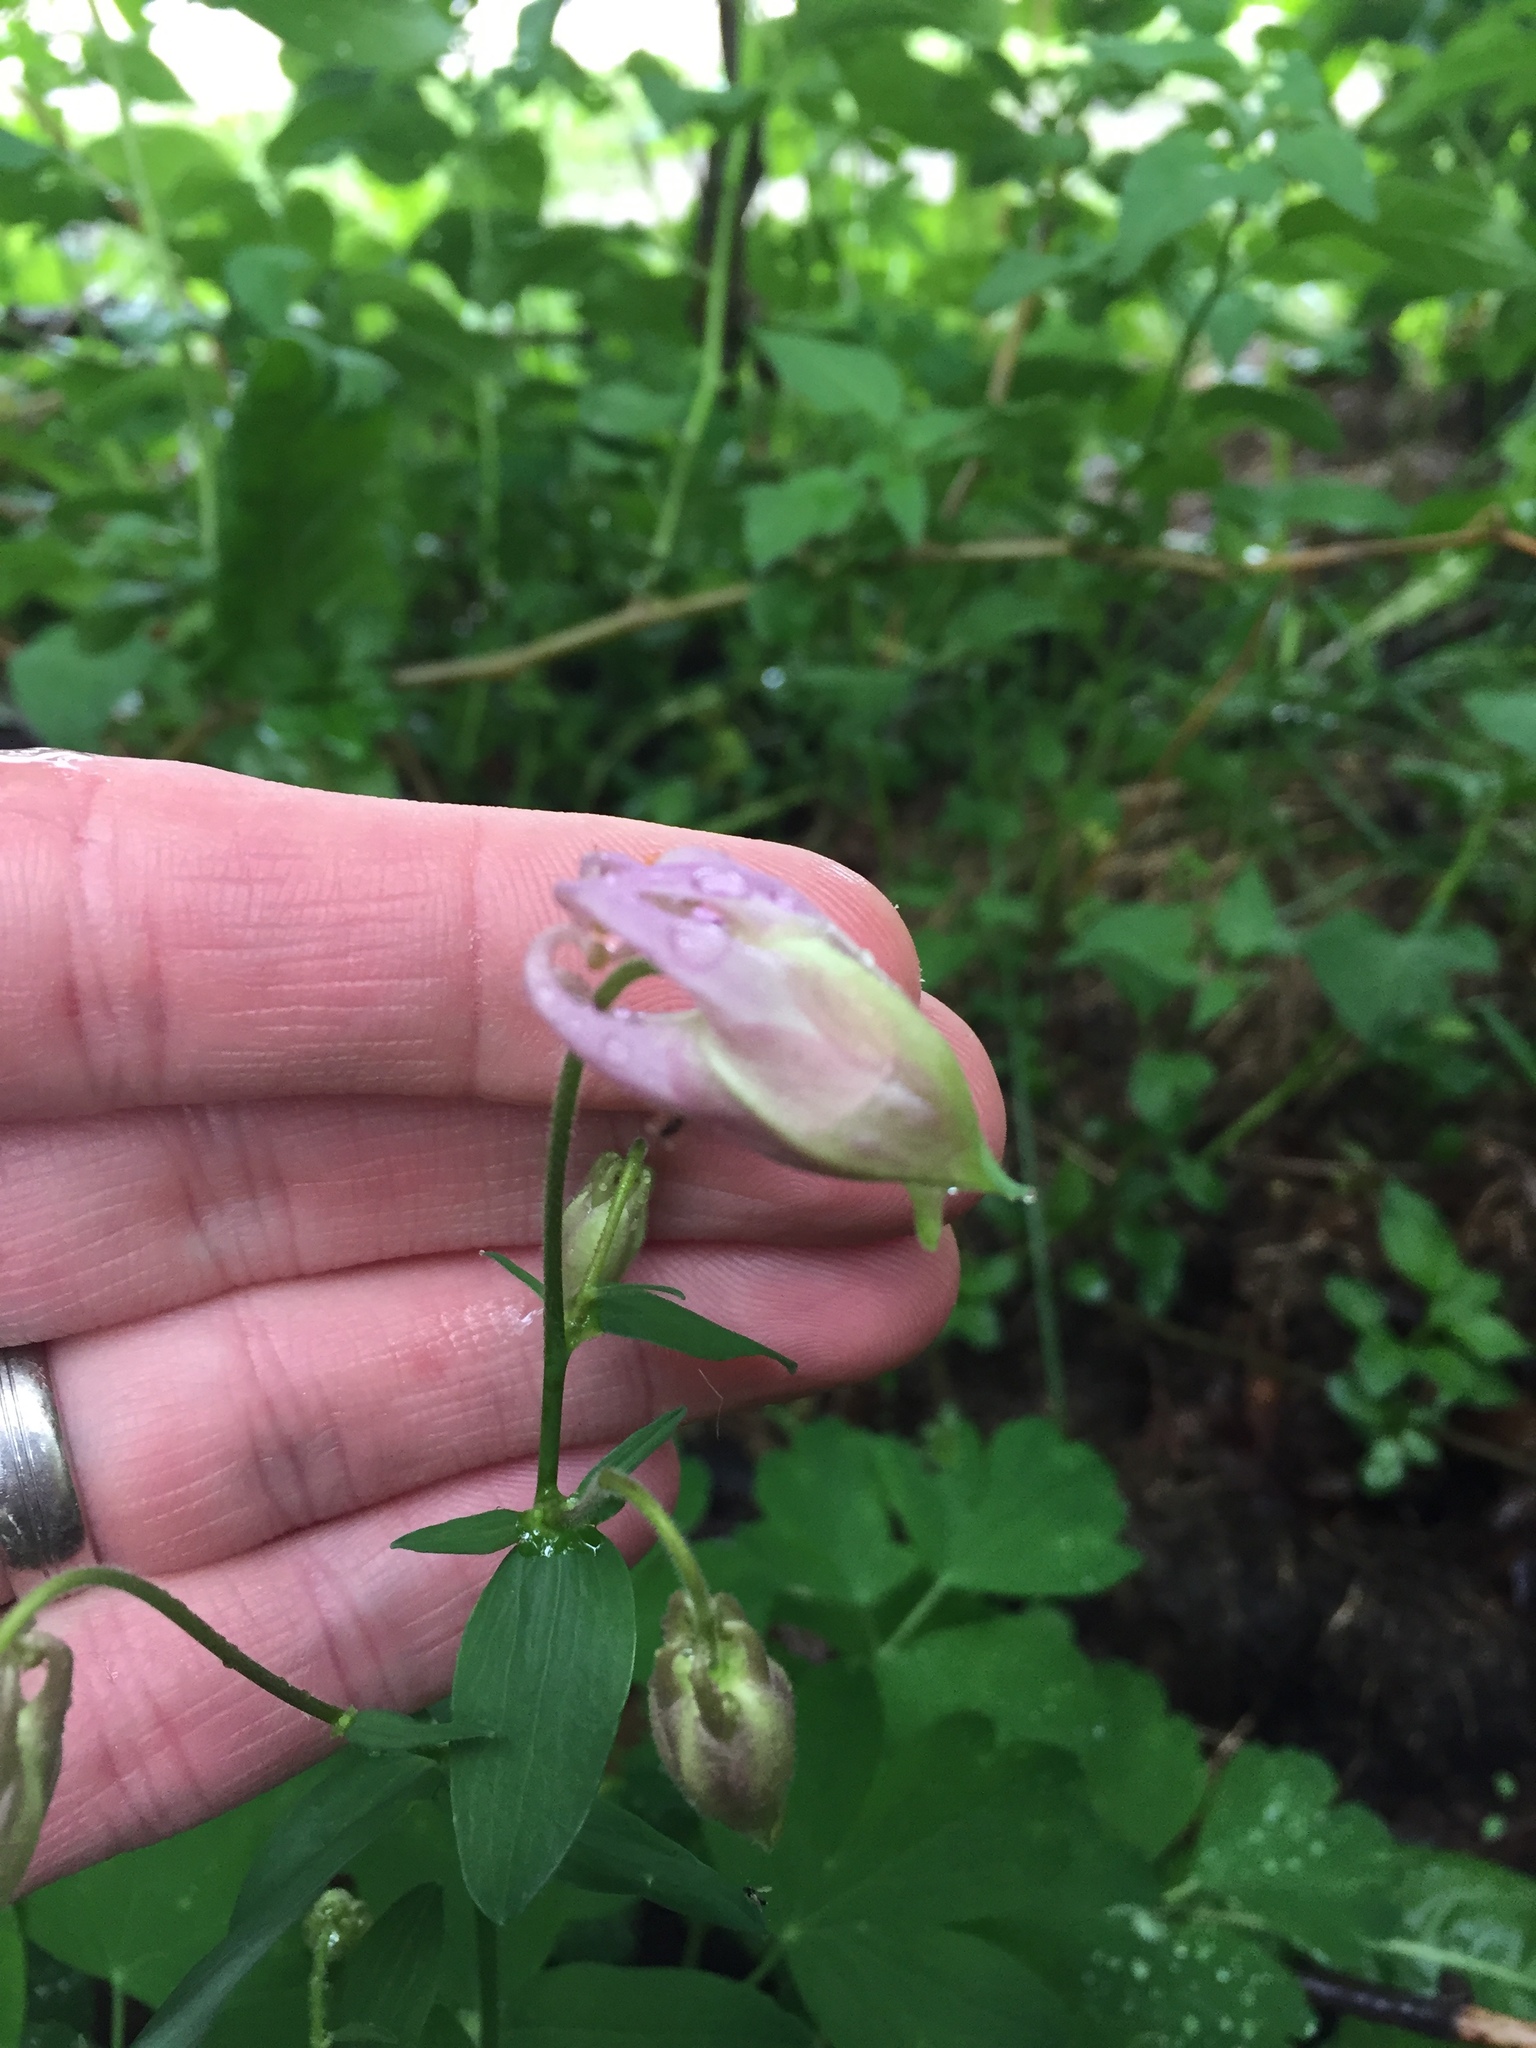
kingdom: Plantae
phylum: Tracheophyta
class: Magnoliopsida
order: Ranunculales
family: Ranunculaceae
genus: Aquilegia
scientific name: Aquilegia canadensis
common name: American columbine
